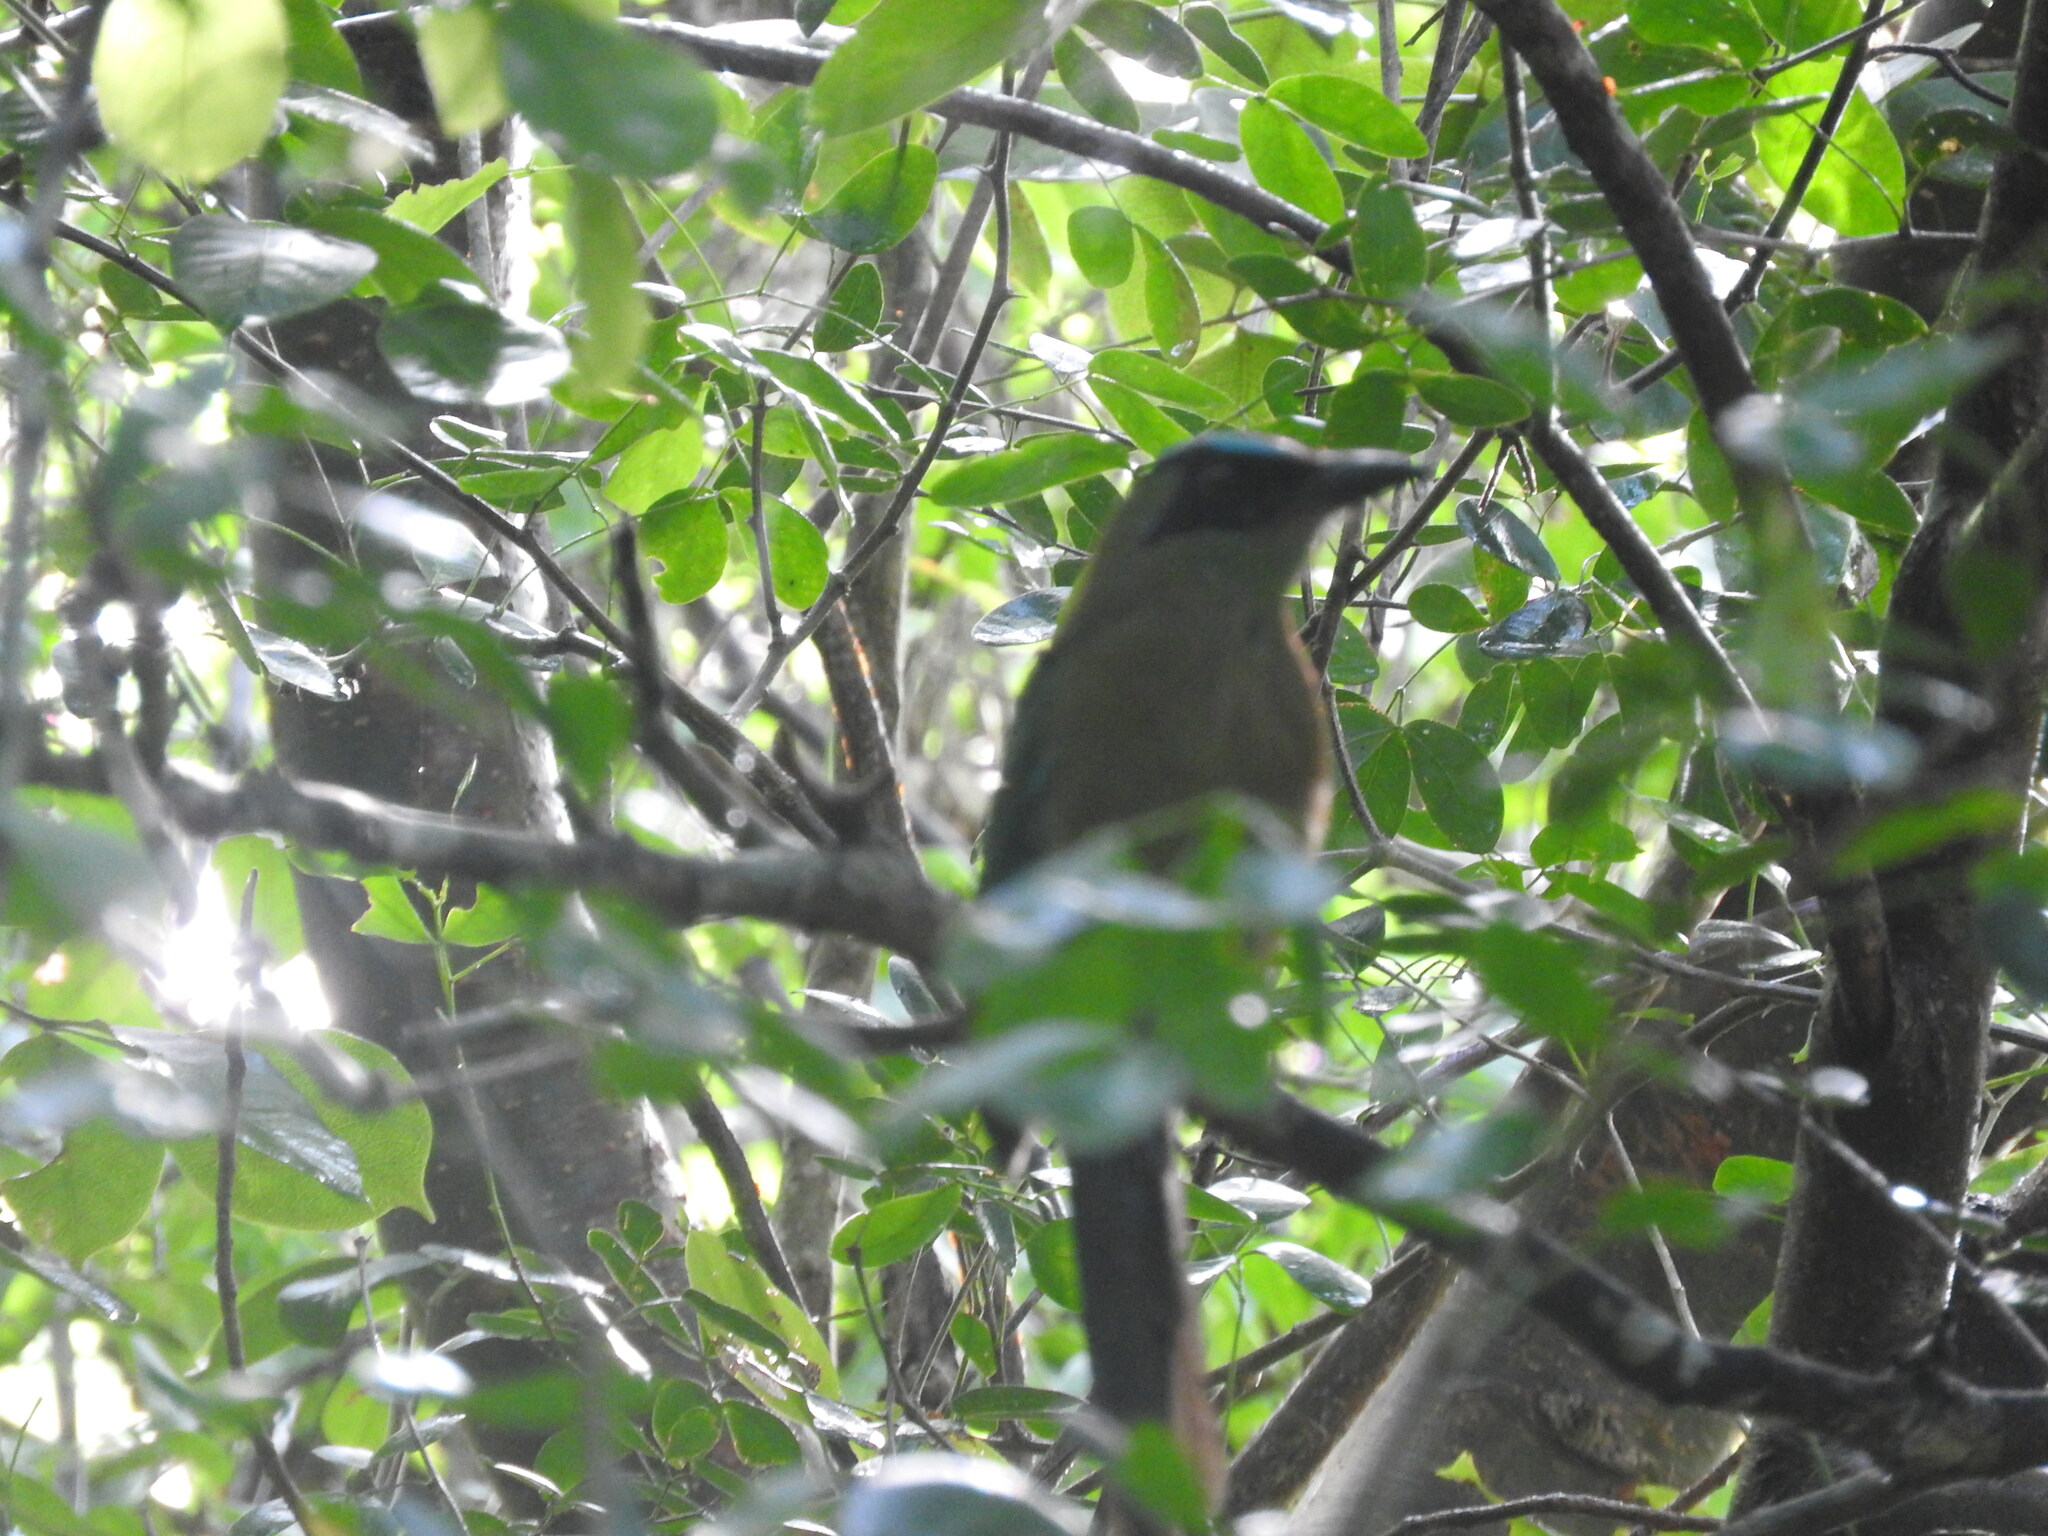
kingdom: Animalia
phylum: Chordata
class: Aves
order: Coraciiformes
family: Momotidae
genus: Momotus
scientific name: Momotus lessonii
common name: Lesson's motmot
